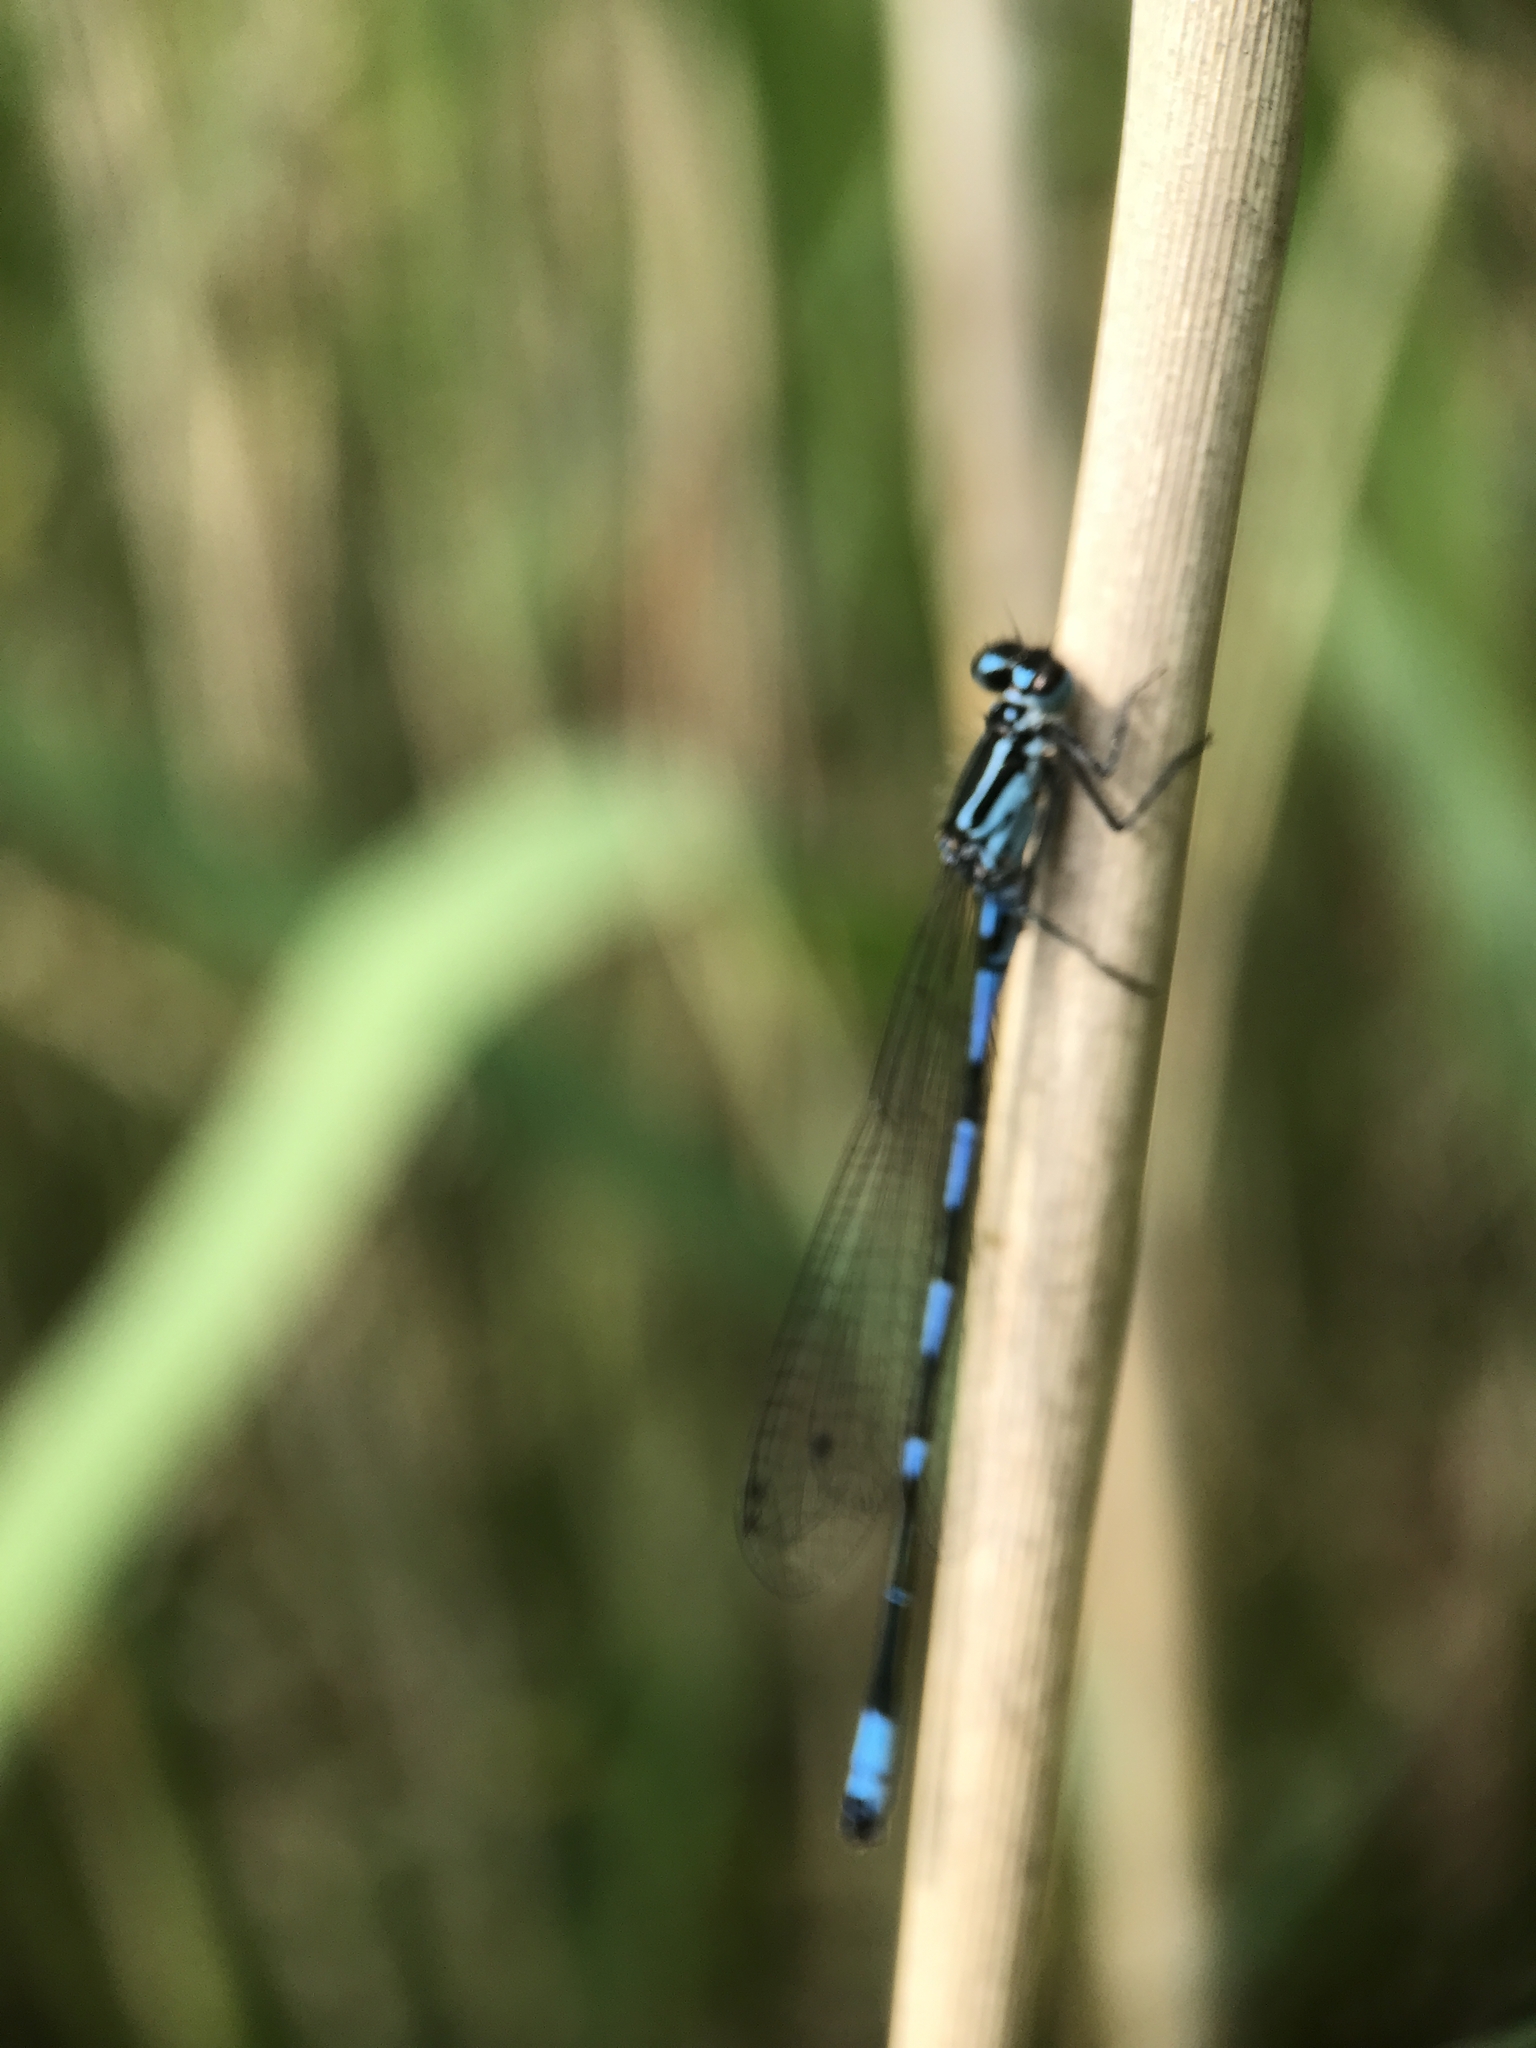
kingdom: Animalia
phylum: Arthropoda
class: Insecta
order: Odonata
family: Coenagrionidae
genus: Coenagrion
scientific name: Coenagrion pulchellum
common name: Variable bluet
